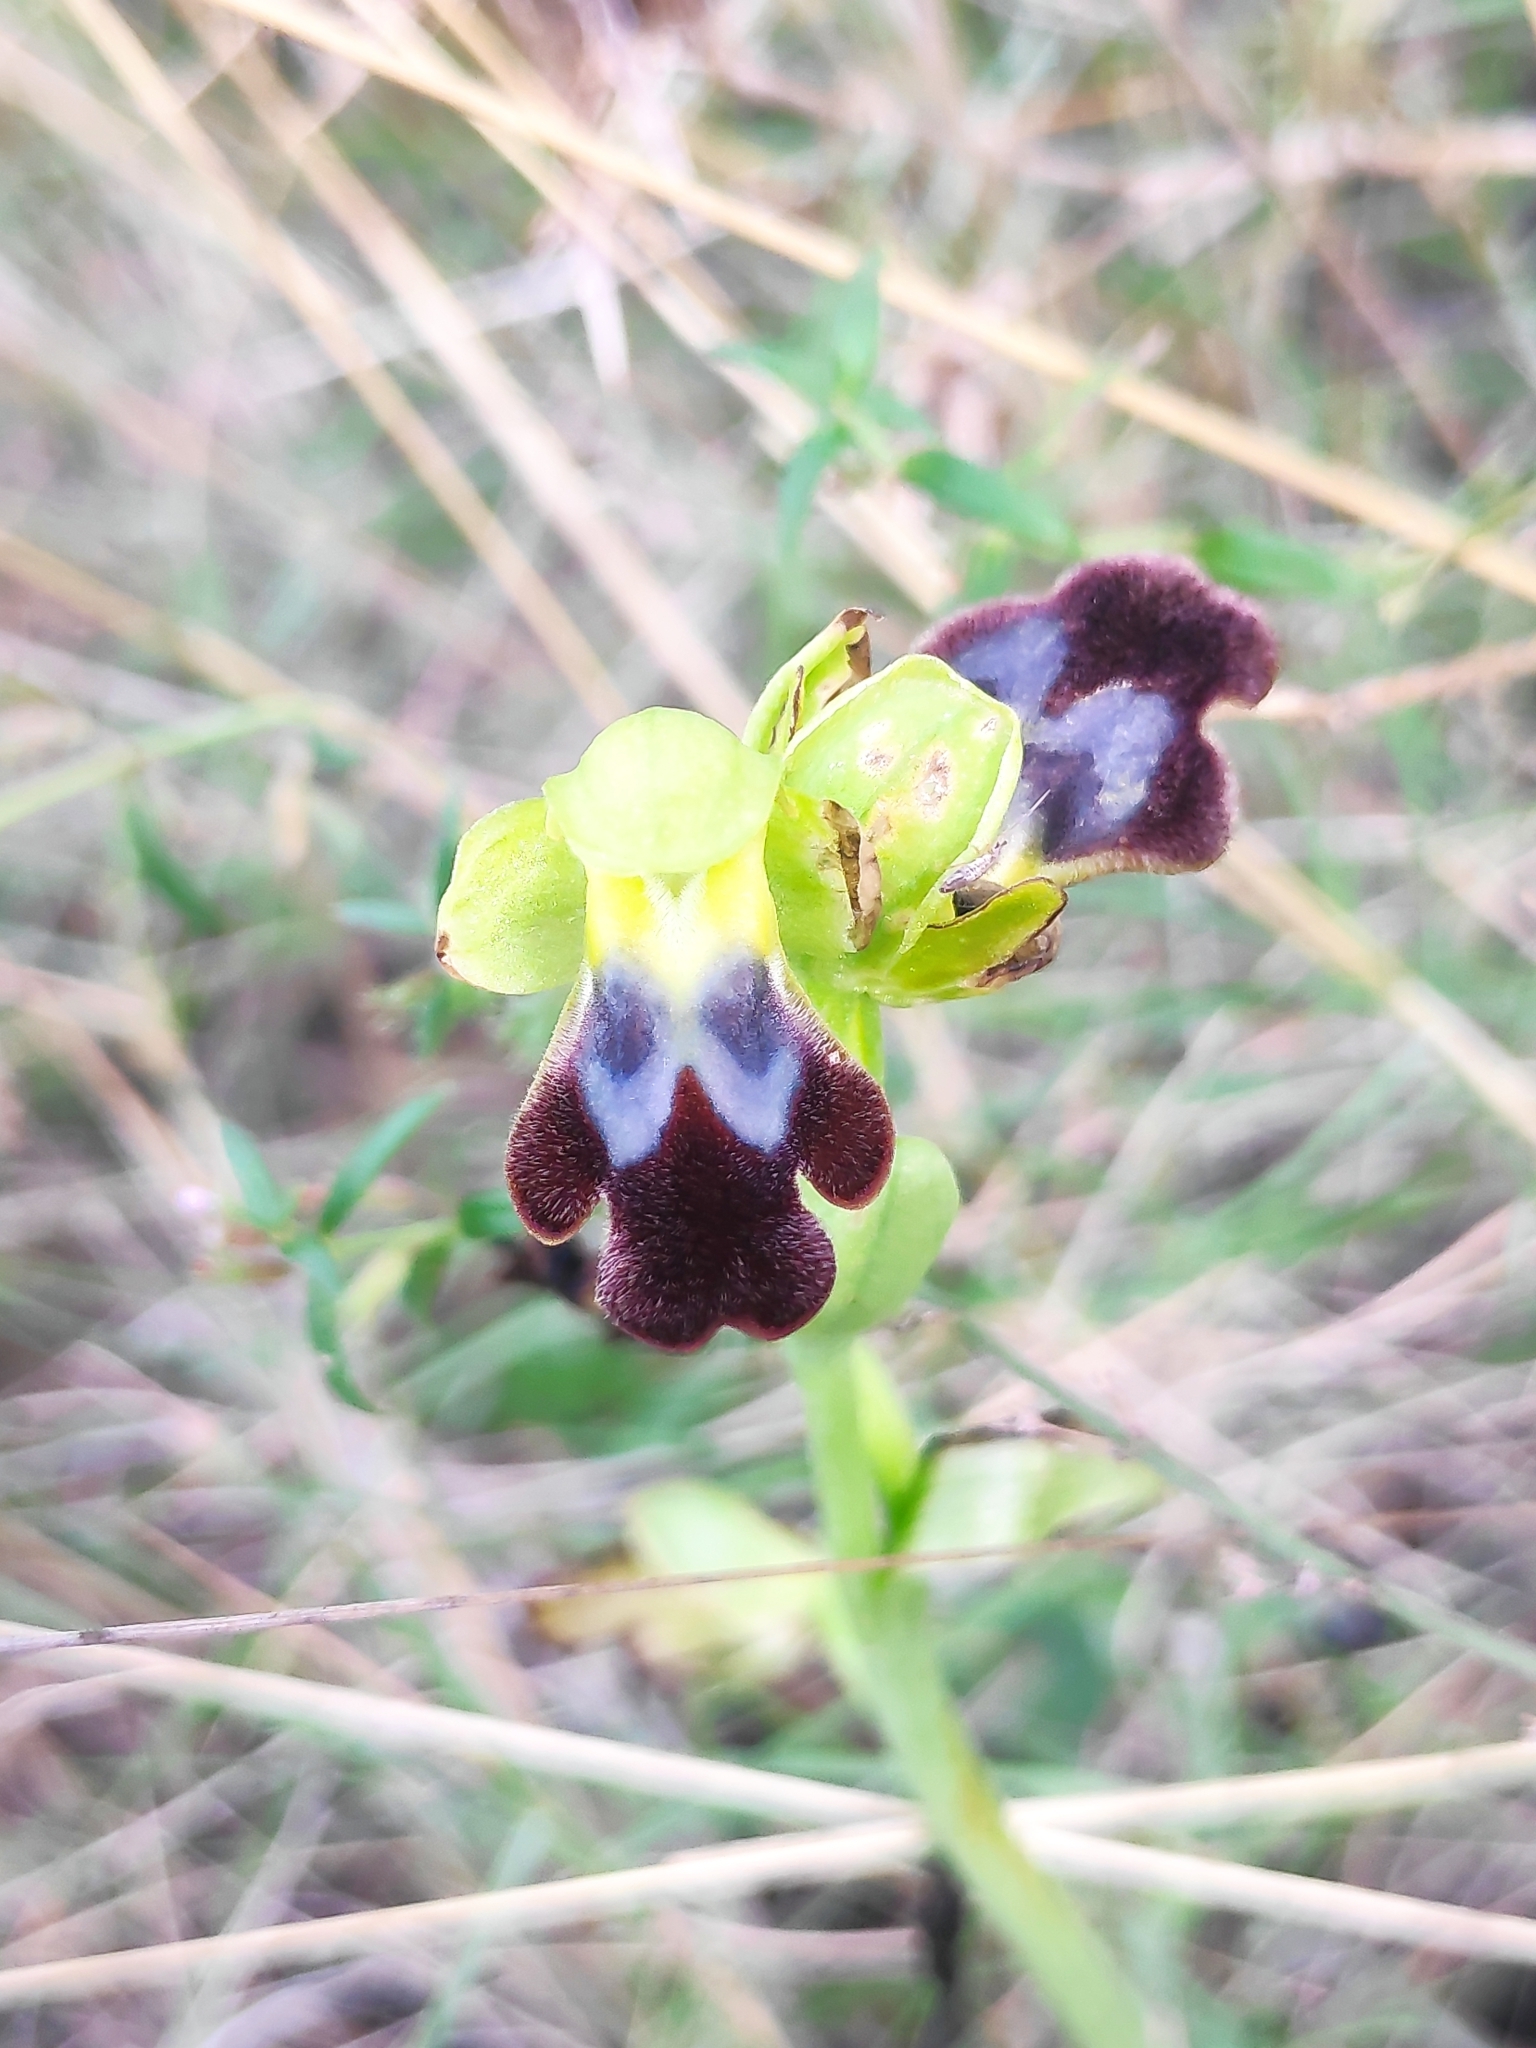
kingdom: Plantae
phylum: Tracheophyta
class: Liliopsida
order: Asparagales
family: Orchidaceae
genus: Ophrys
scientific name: Ophrys fusca
